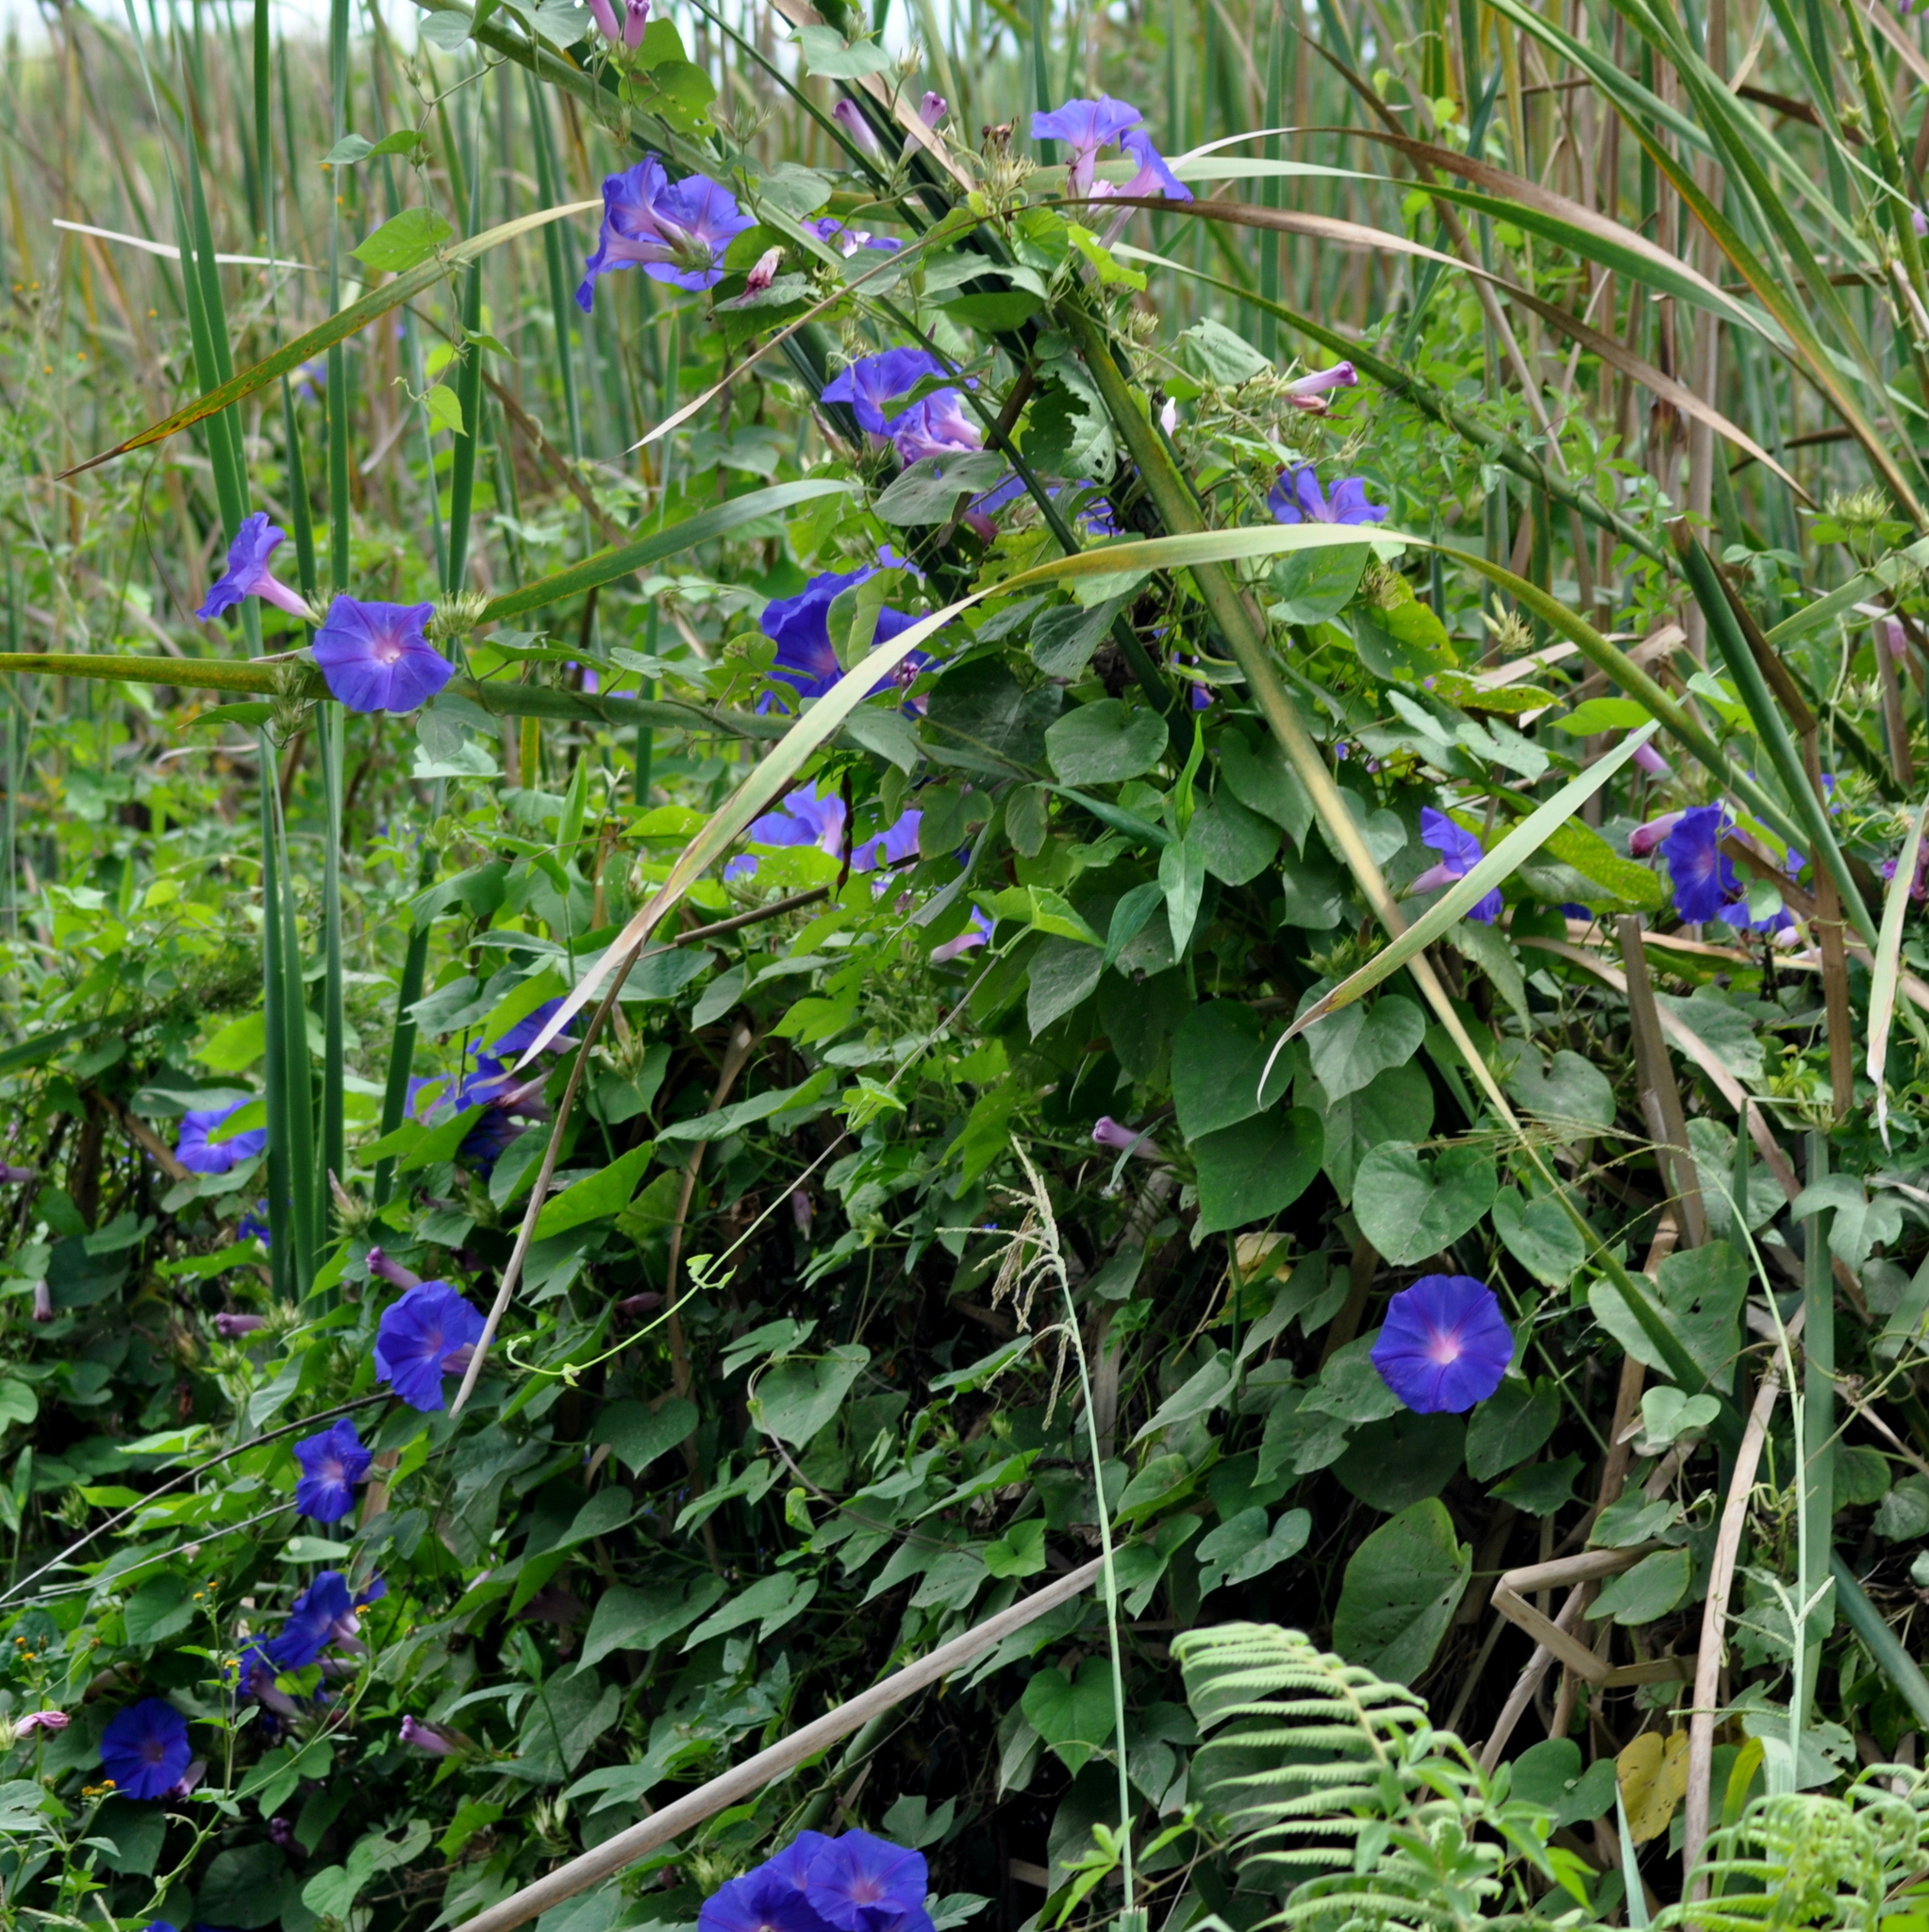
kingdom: Plantae
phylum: Tracheophyta
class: Magnoliopsida
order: Solanales
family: Convolvulaceae
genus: Ipomoea
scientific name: Ipomoea indica
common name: Blue dawnflower
